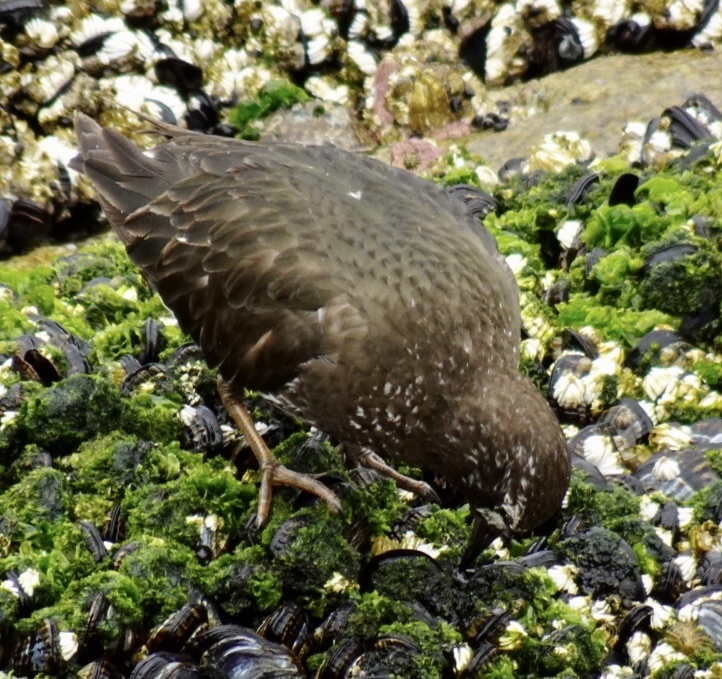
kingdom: Animalia
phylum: Chordata
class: Aves
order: Charadriiformes
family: Scolopacidae
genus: Arenaria
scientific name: Arenaria melanocephala
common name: Black turnstone
